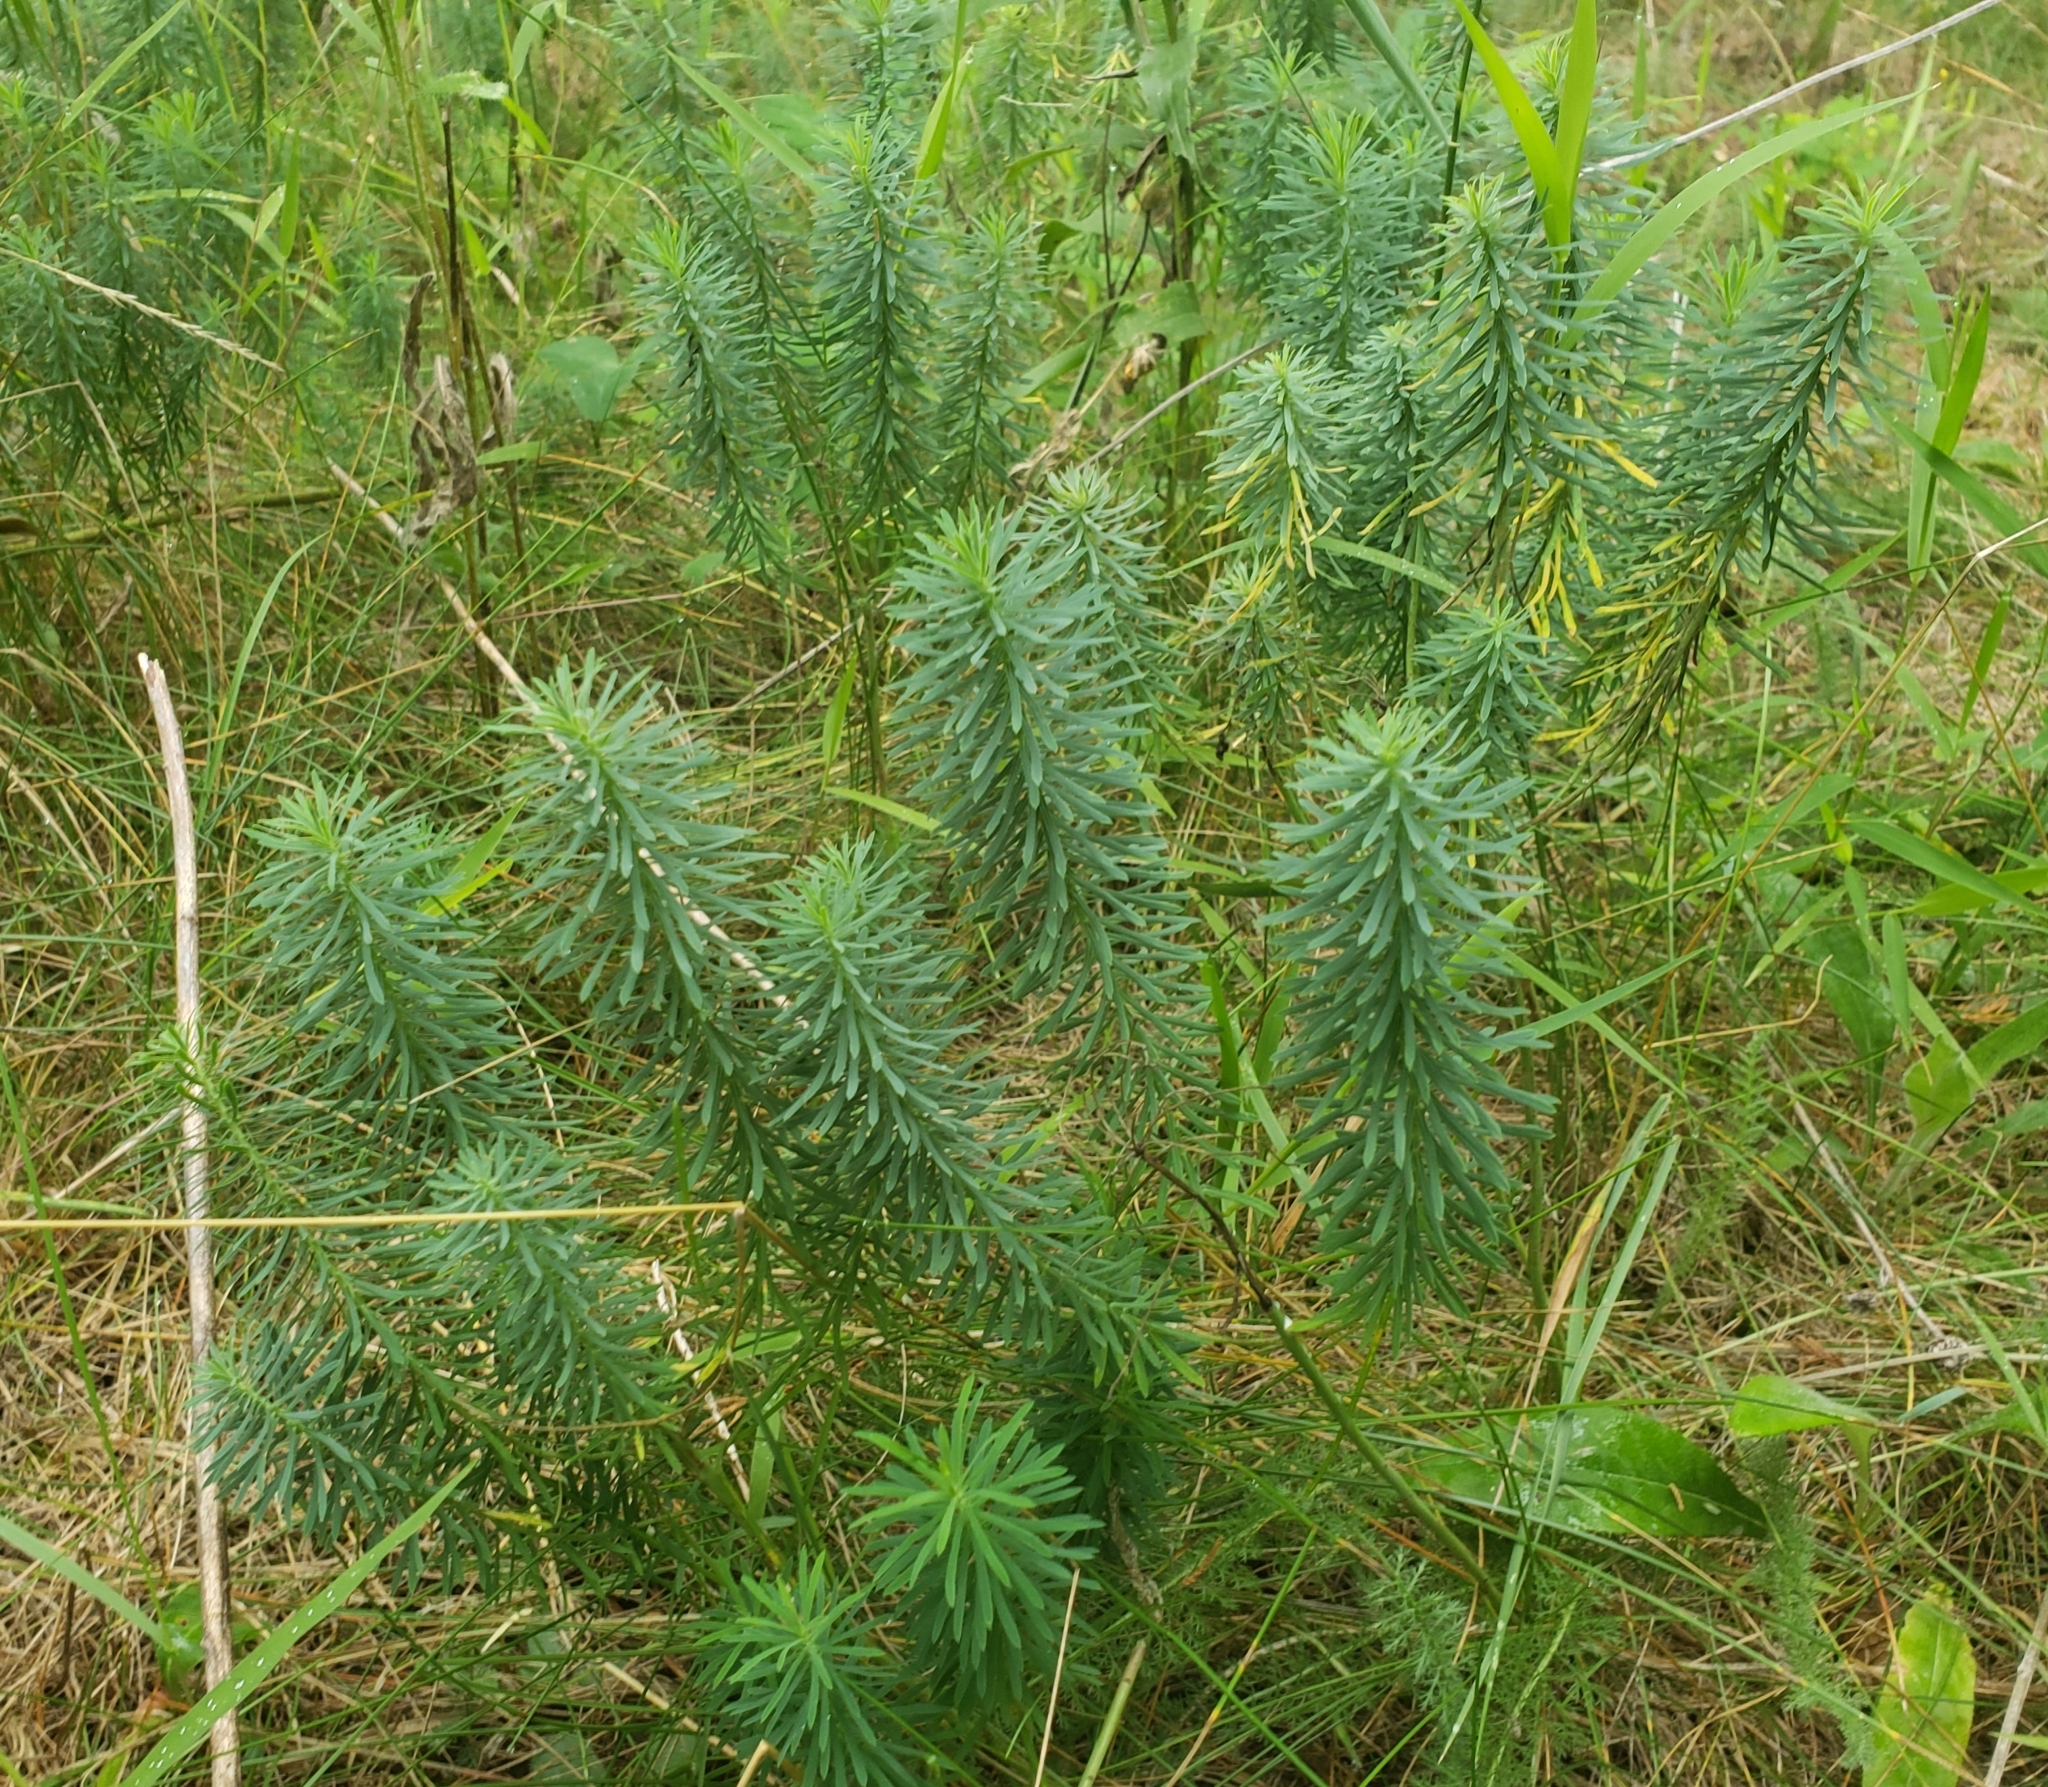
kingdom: Plantae
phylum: Tracheophyta
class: Magnoliopsida
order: Malpighiales
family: Euphorbiaceae
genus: Euphorbia
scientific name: Euphorbia cyparissias
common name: Cypress spurge
